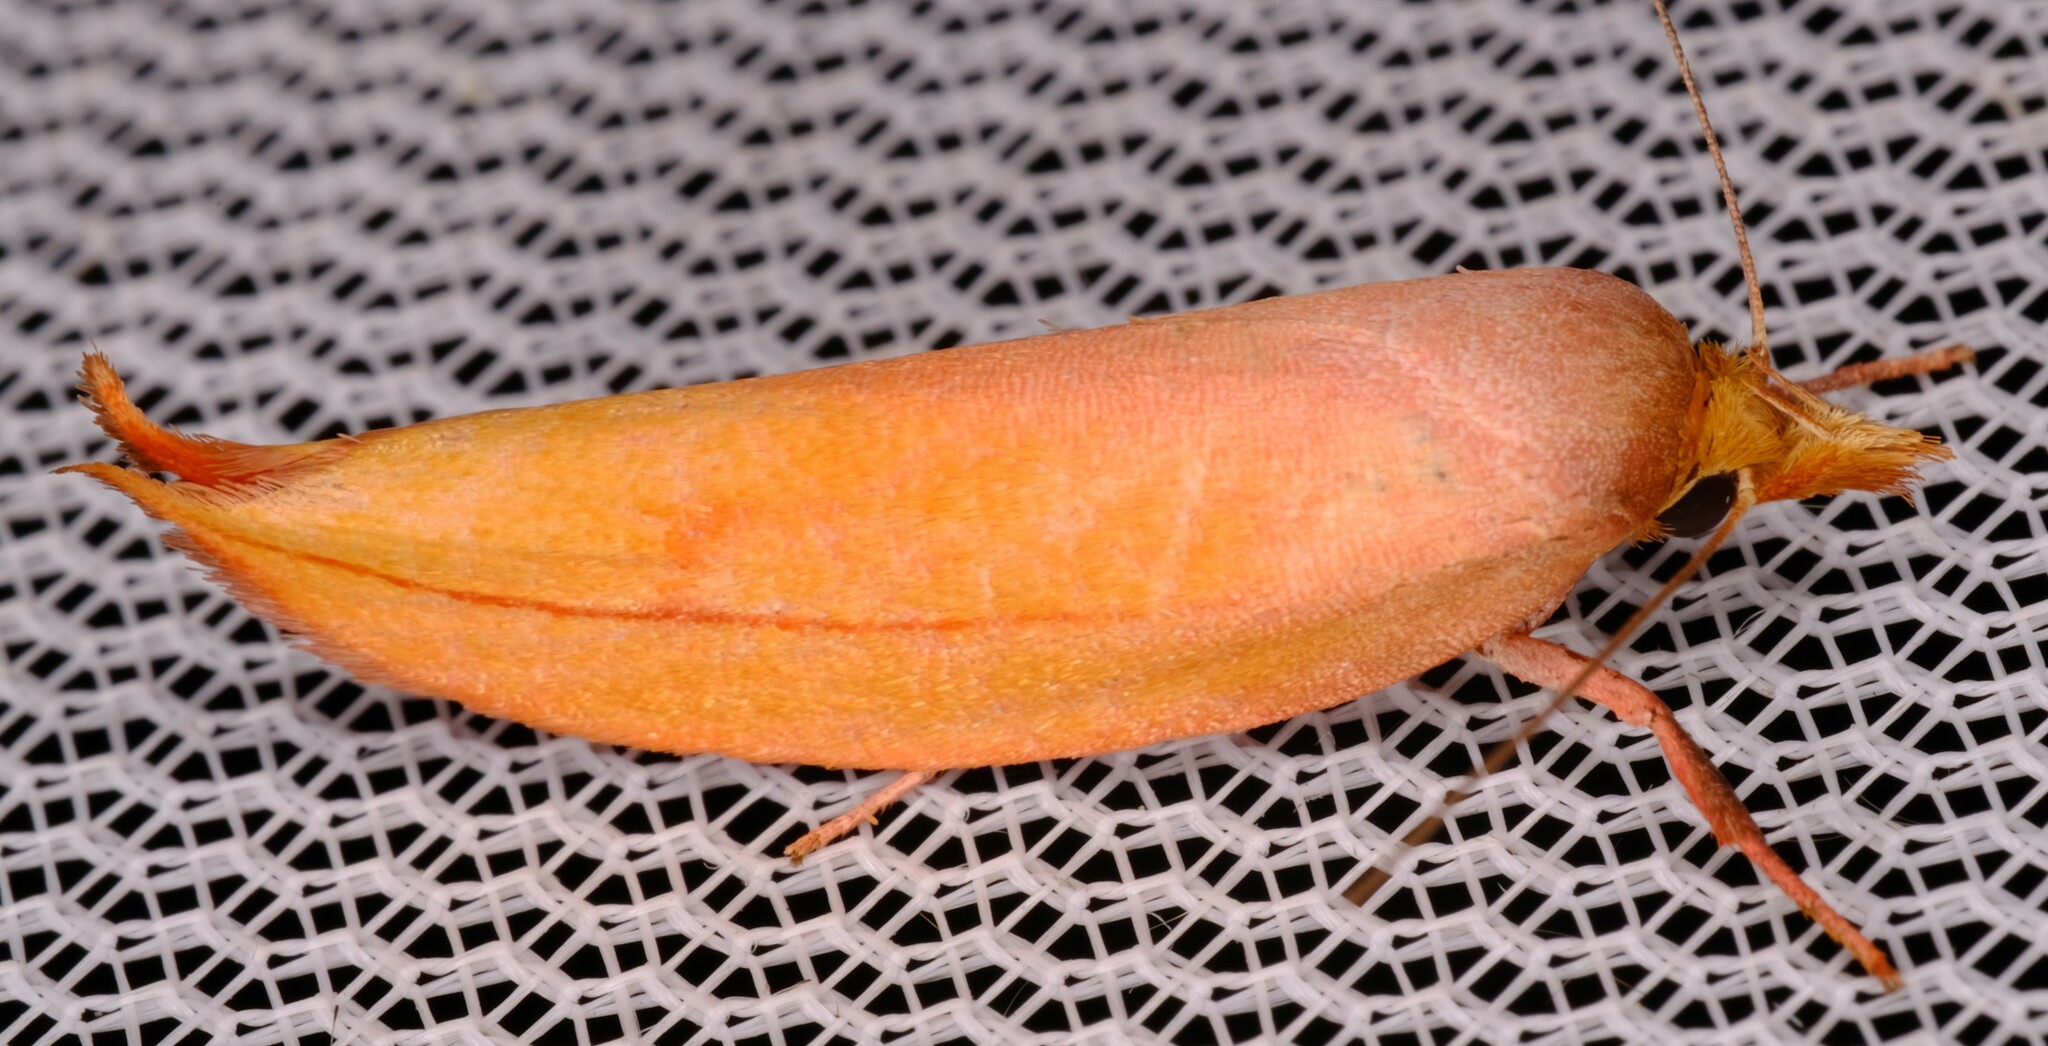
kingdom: Animalia
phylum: Arthropoda
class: Insecta
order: Lepidoptera
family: Oecophoridae
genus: Wingia
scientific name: Wingia aurata
